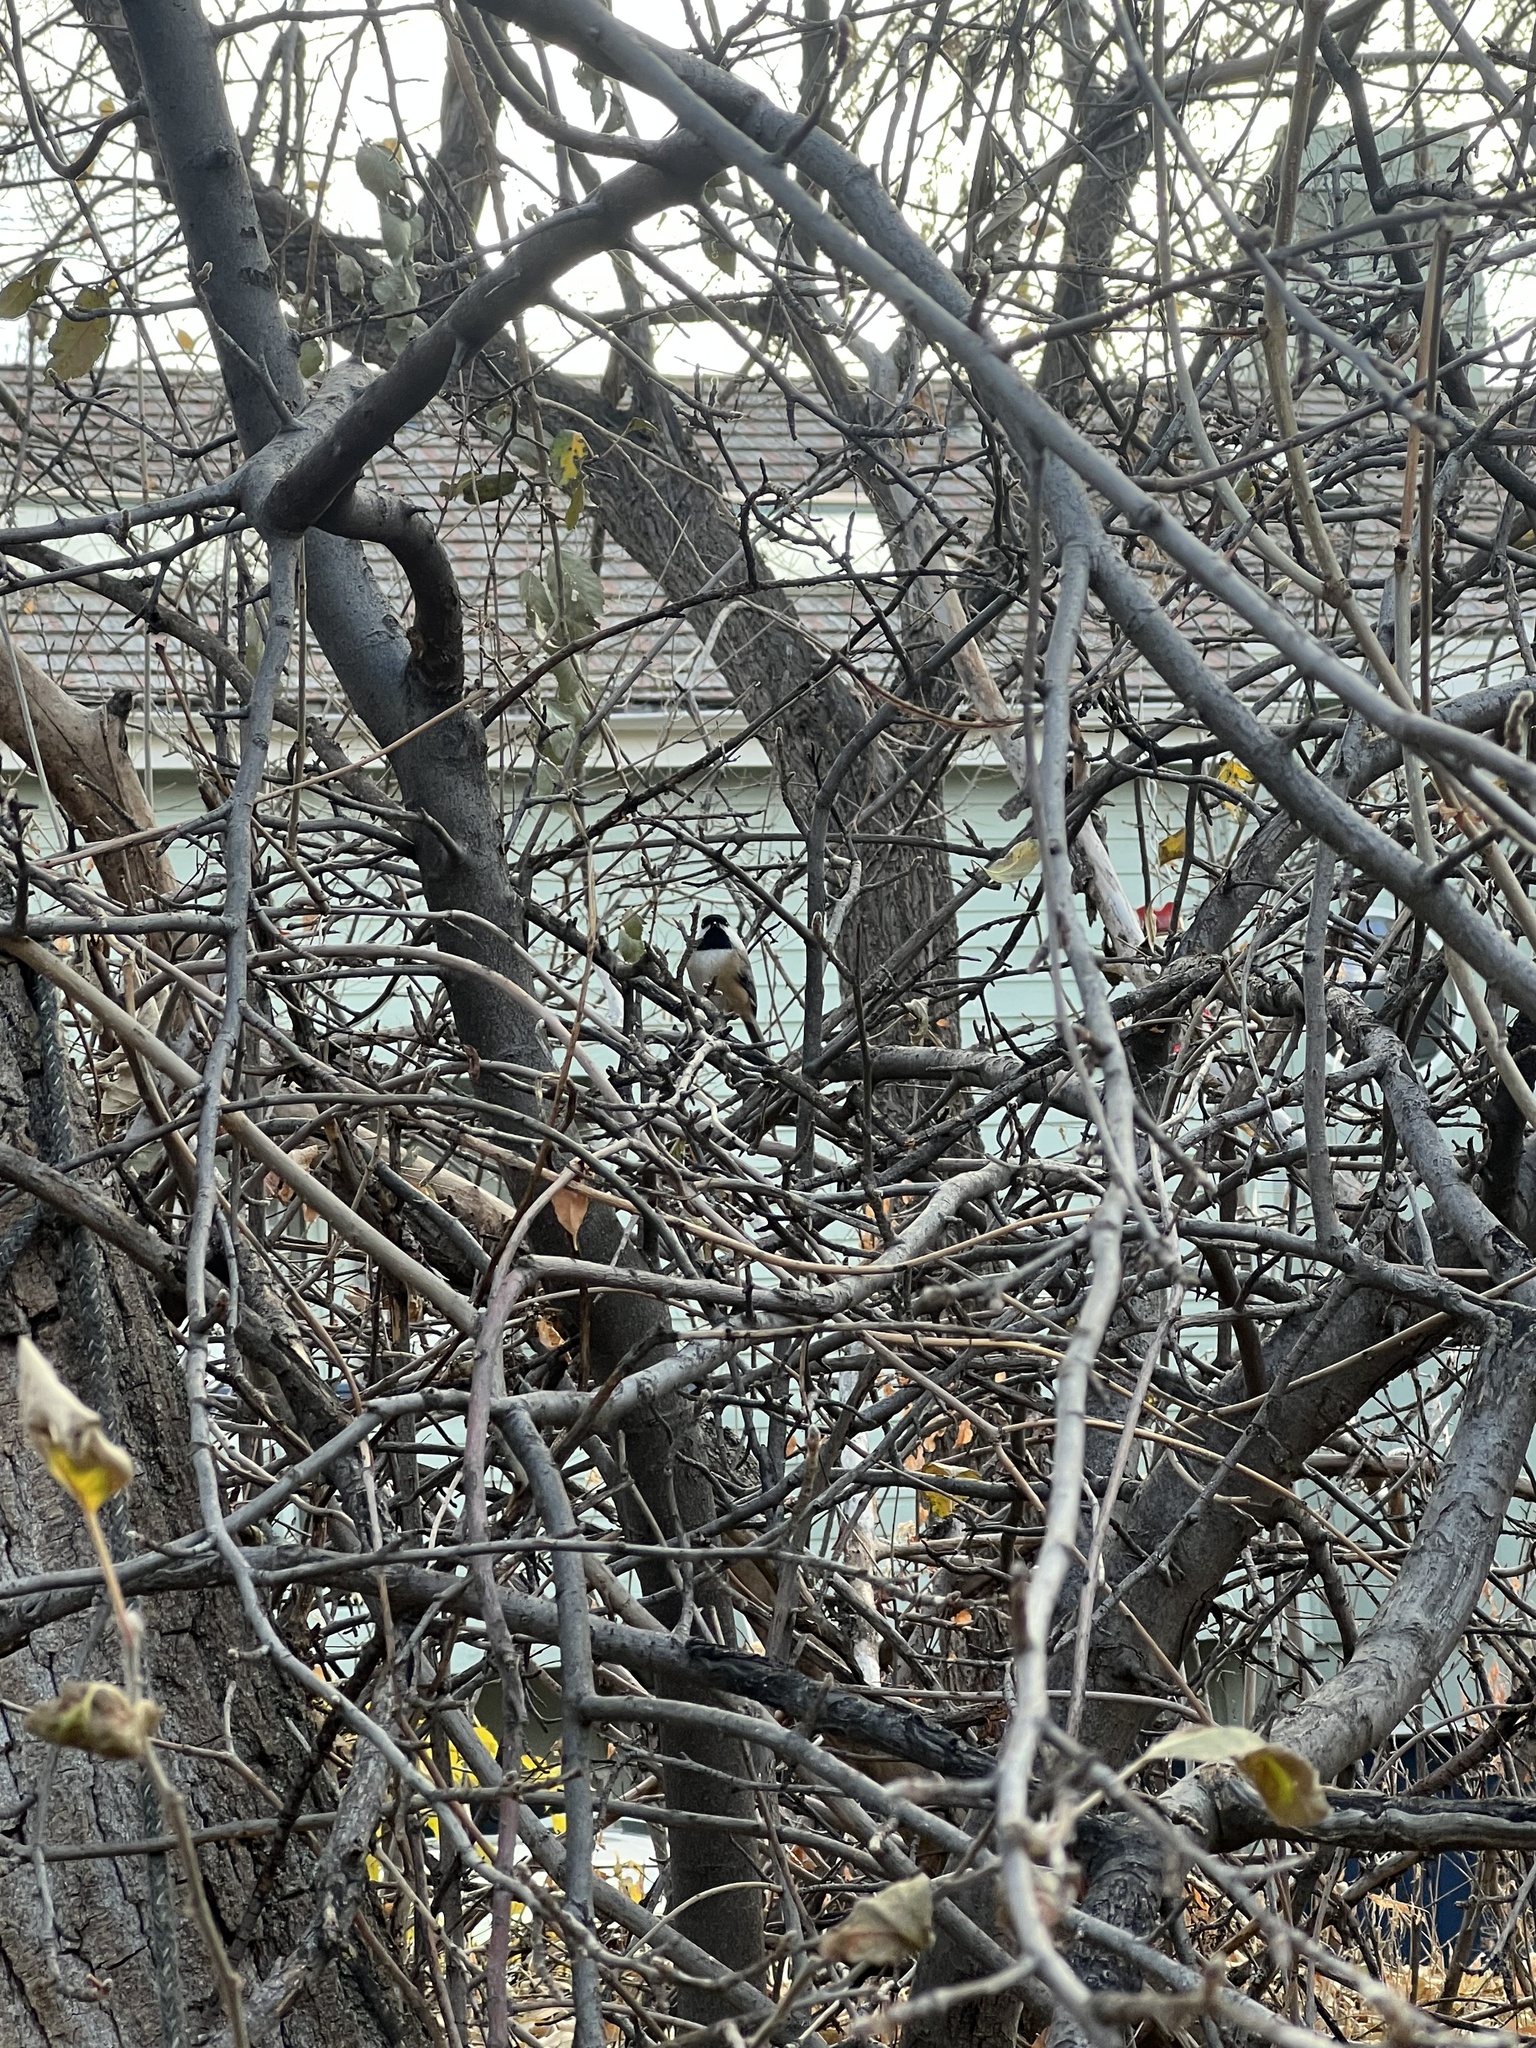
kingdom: Animalia
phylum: Chordata
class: Aves
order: Passeriformes
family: Paridae
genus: Poecile
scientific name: Poecile atricapillus
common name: Black-capped chickadee
